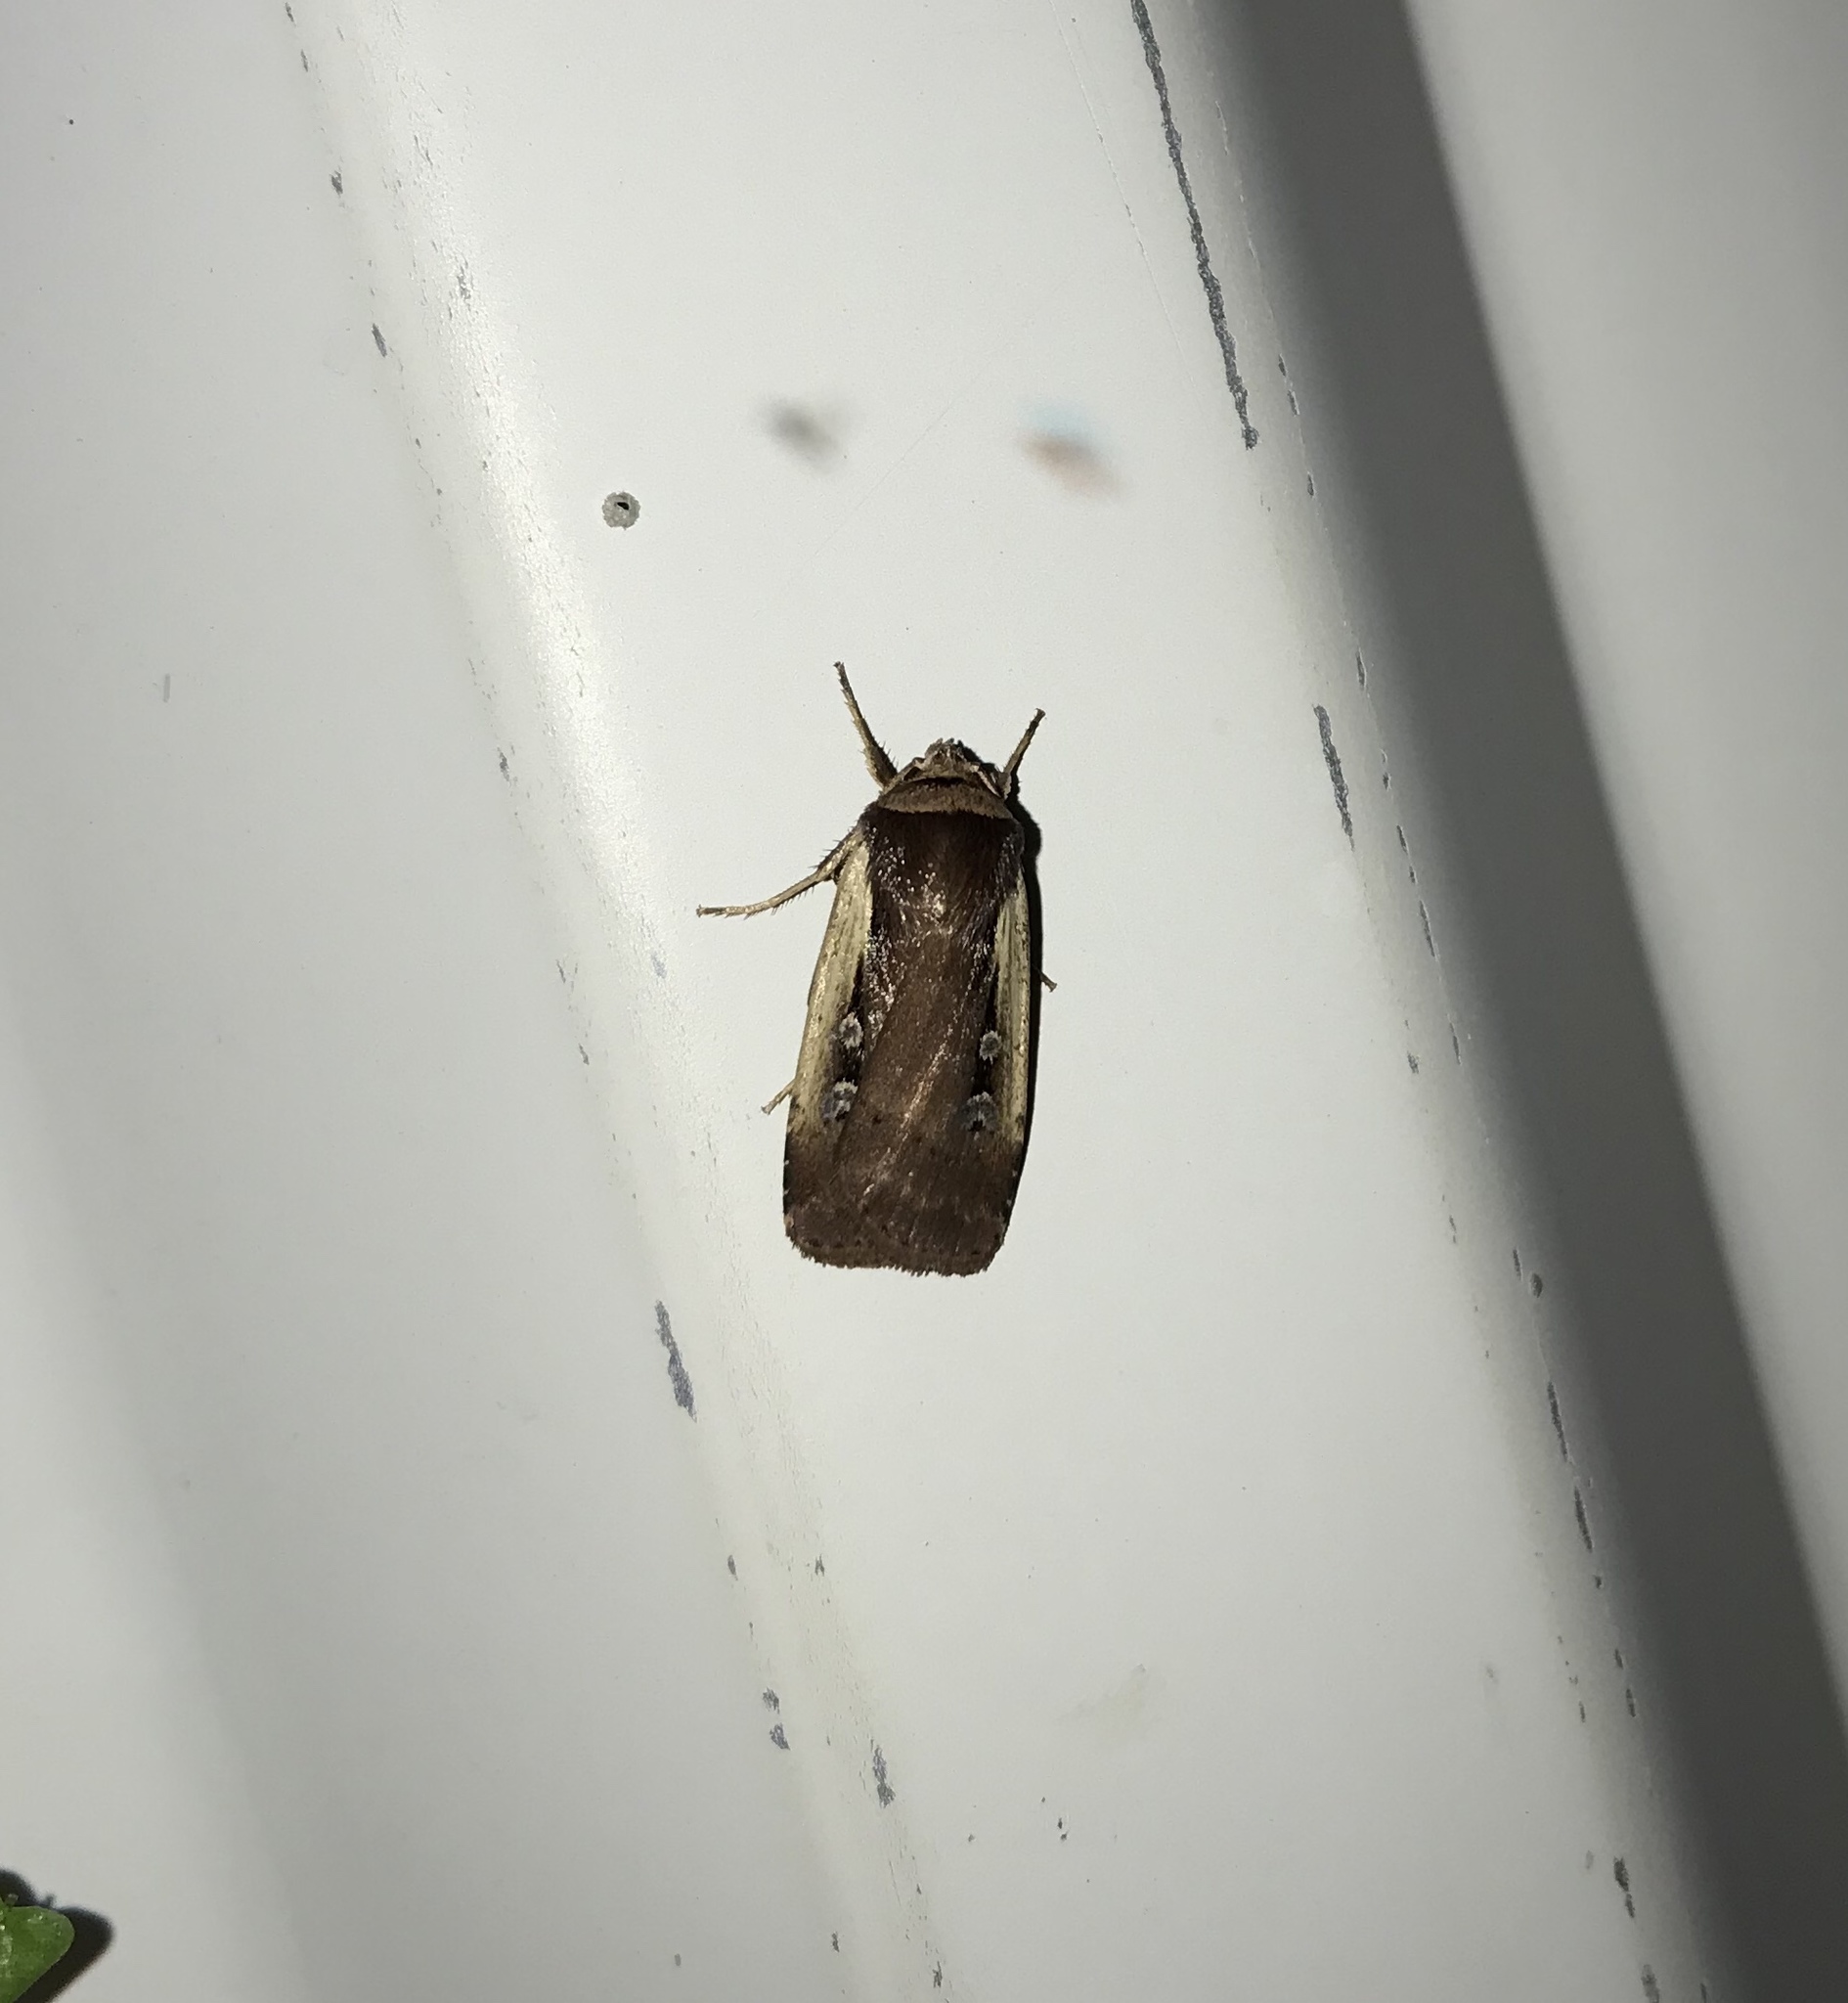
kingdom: Animalia
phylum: Arthropoda
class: Insecta
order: Lepidoptera
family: Noctuidae
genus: Ochropleura
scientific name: Ochropleura implecta
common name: Flame-shouldered dart
